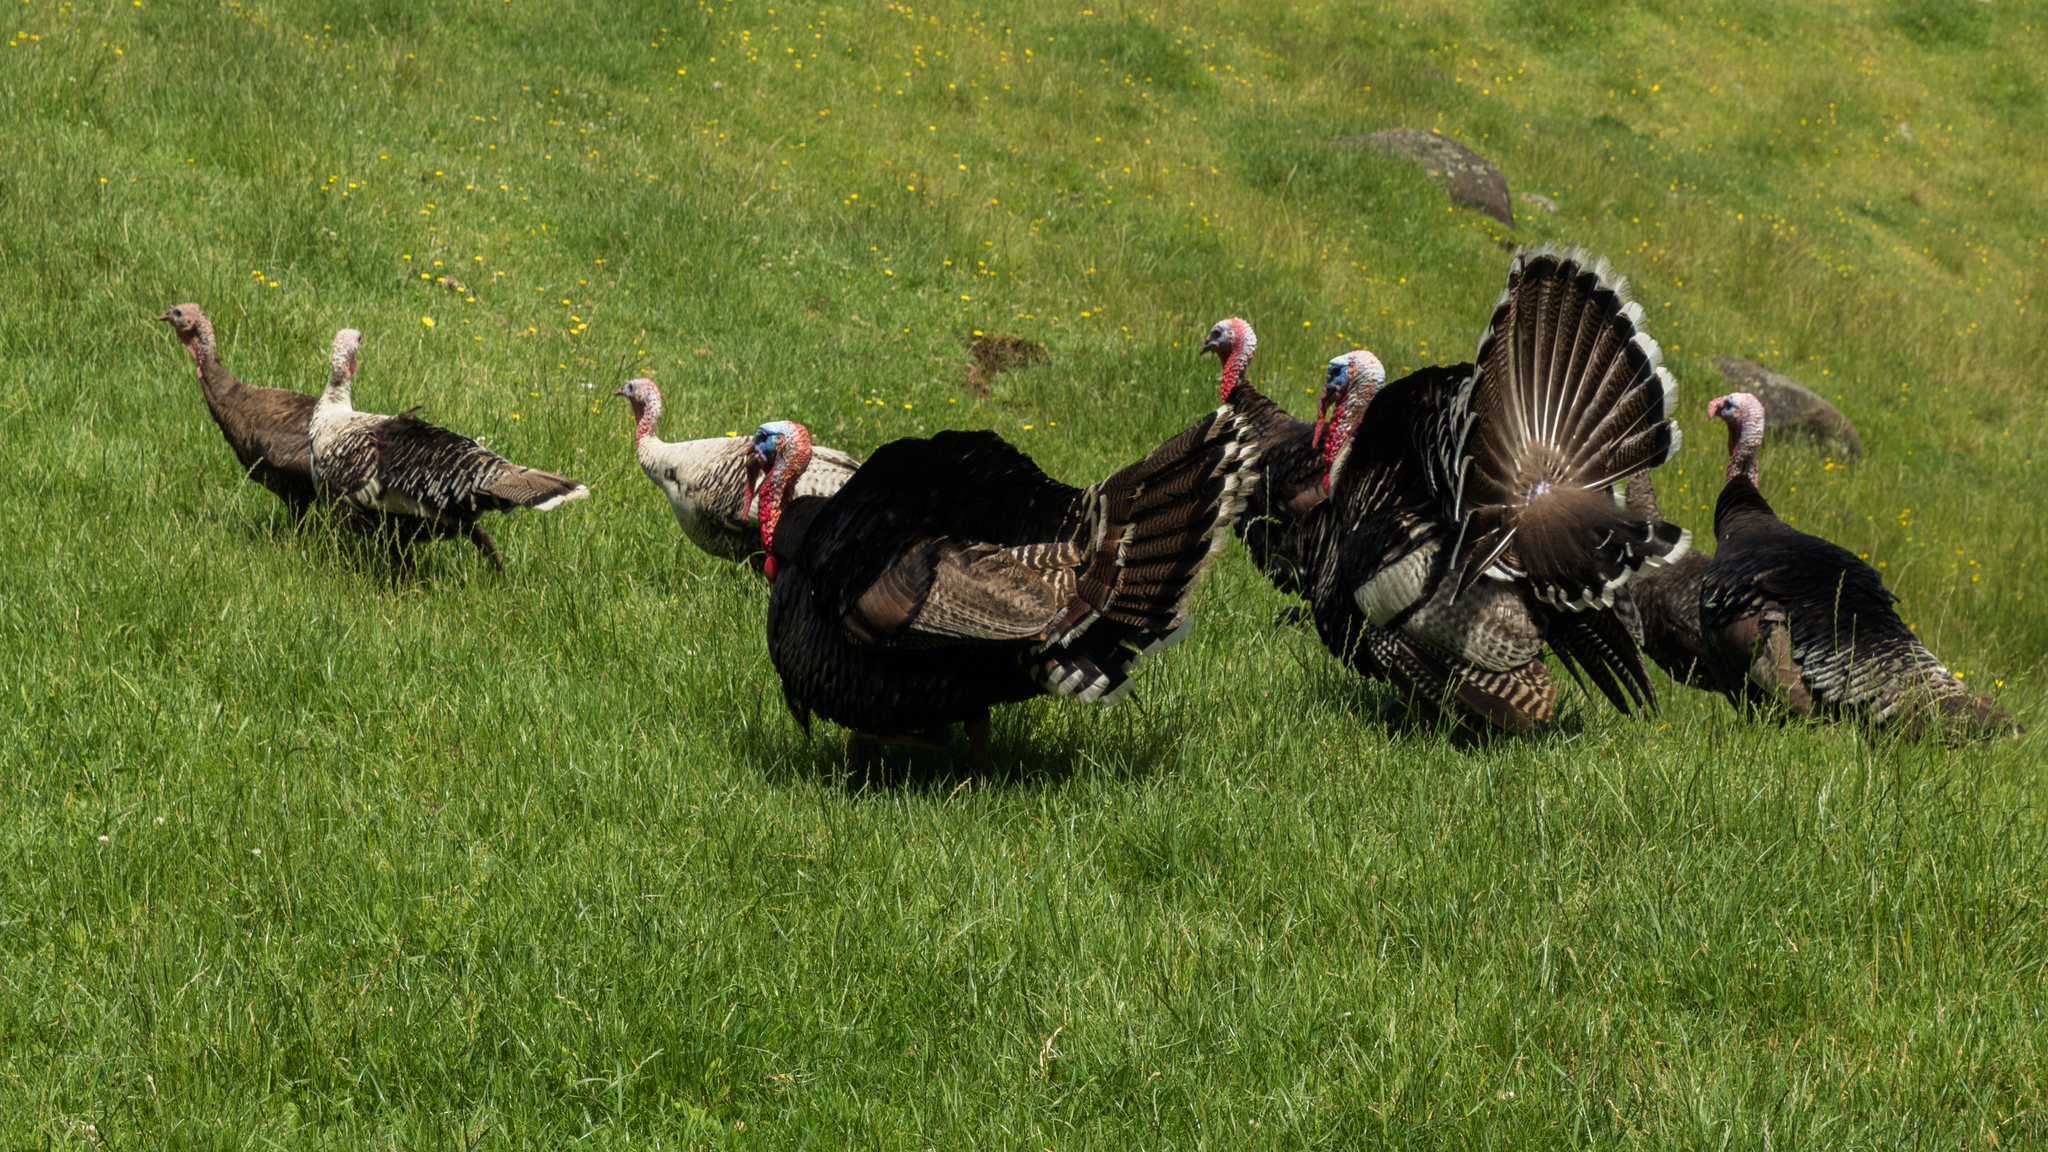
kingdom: Animalia
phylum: Chordata
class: Aves
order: Galliformes
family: Phasianidae
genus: Meleagris
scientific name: Meleagris gallopavo
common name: Wild turkey
